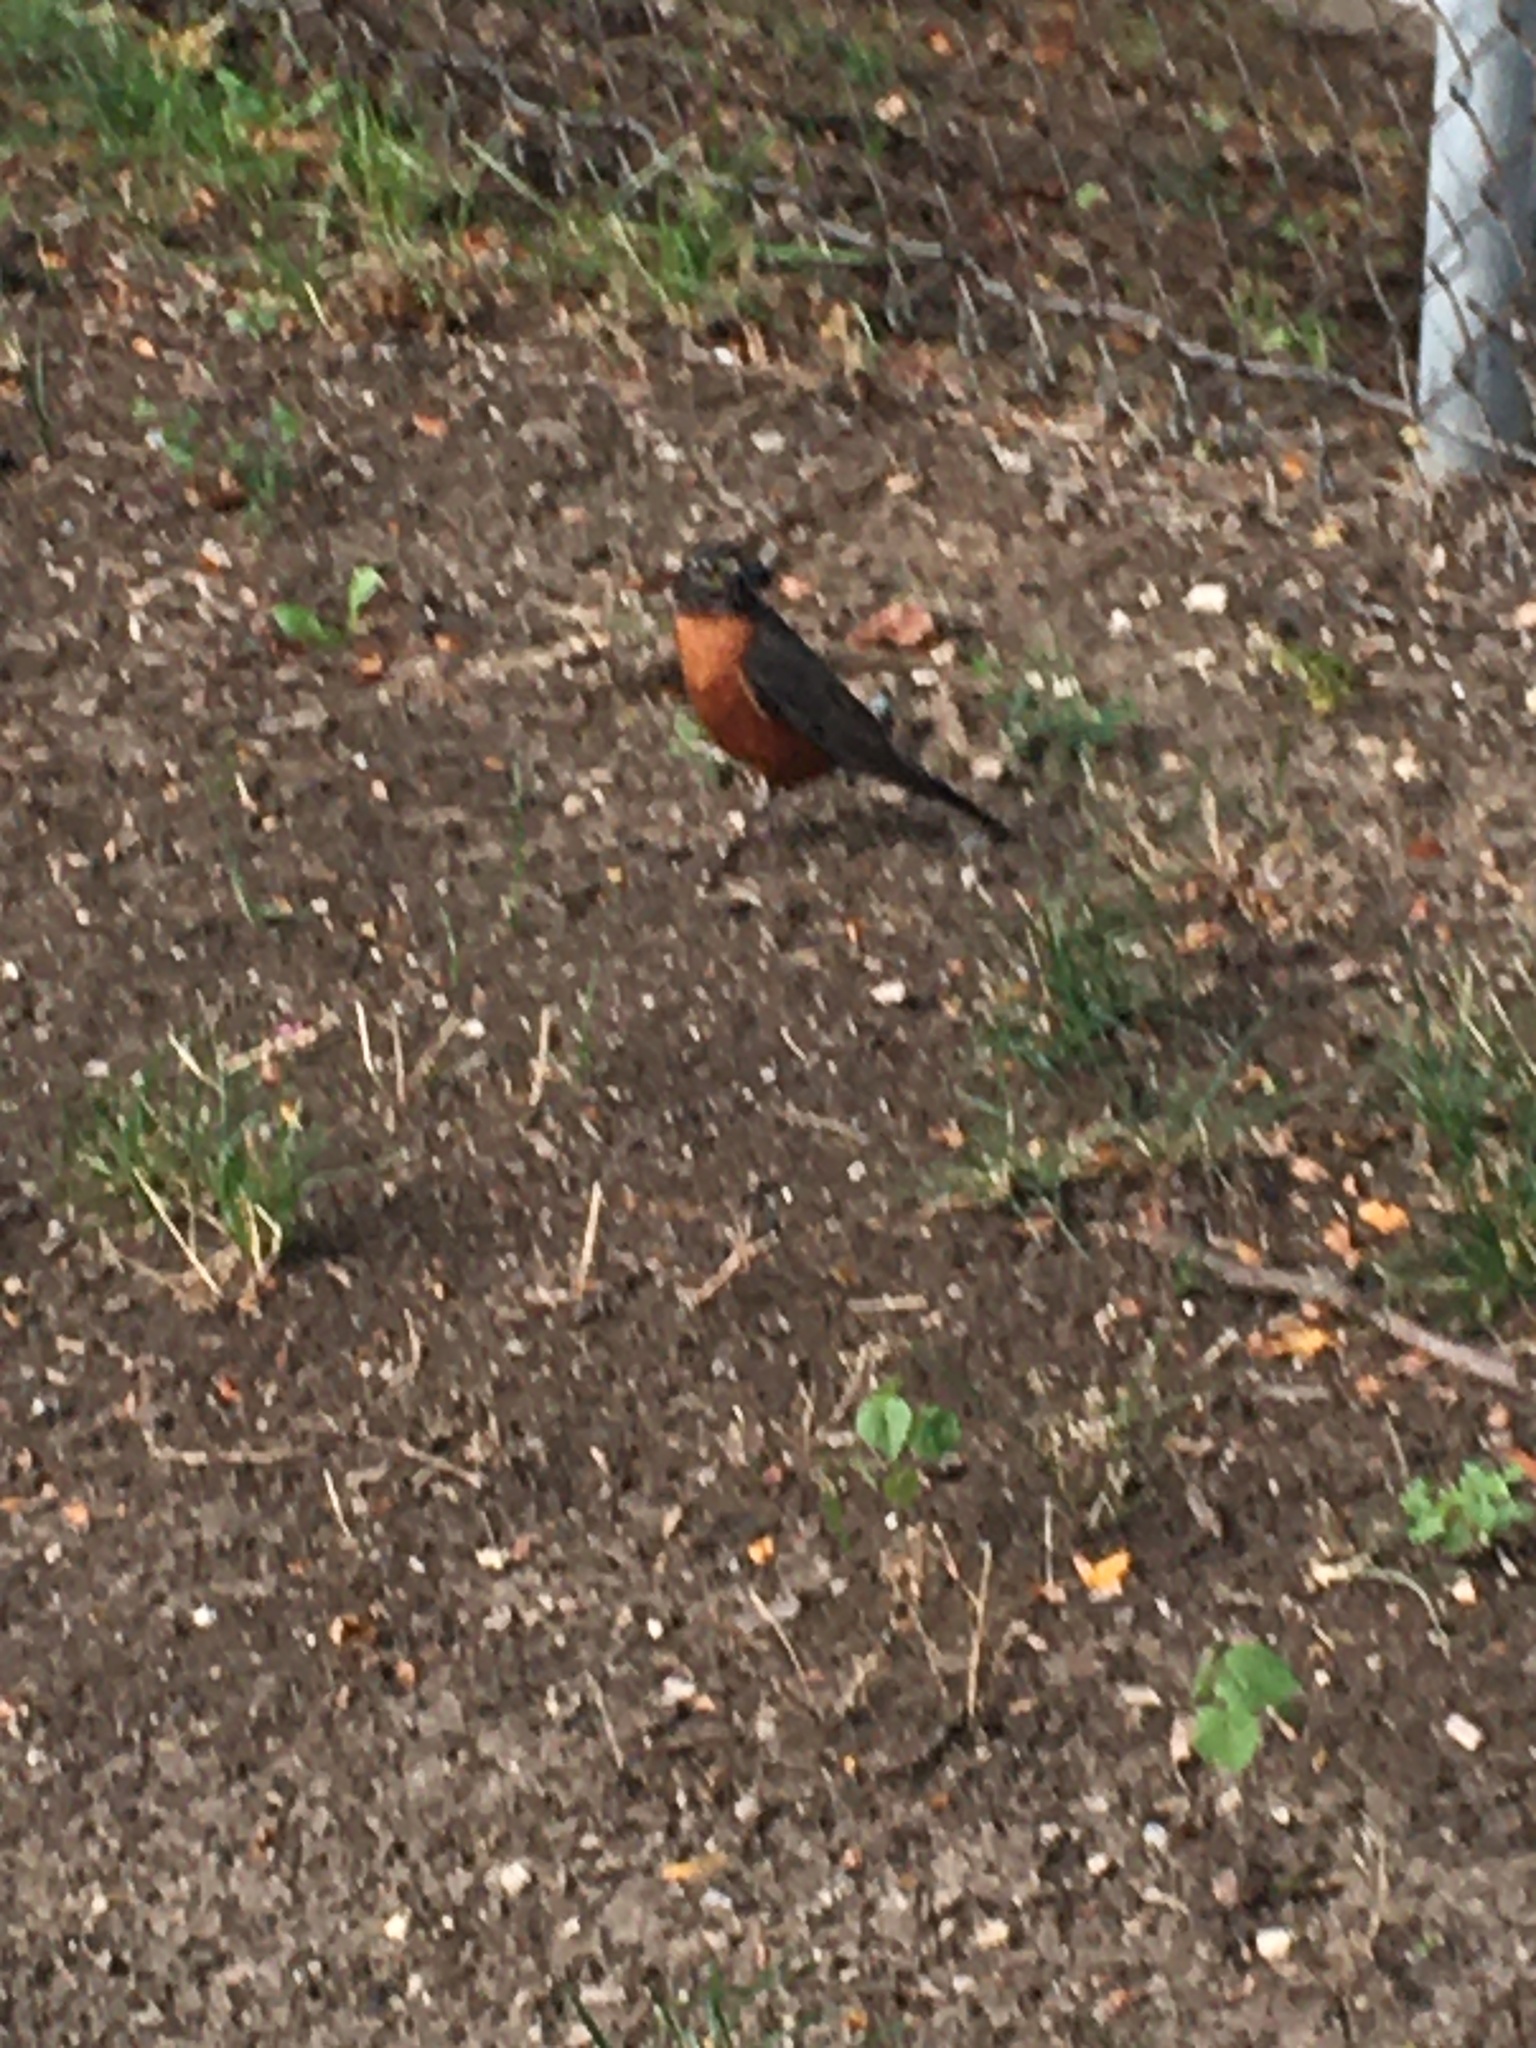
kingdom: Animalia
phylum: Chordata
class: Aves
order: Passeriformes
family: Turdidae
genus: Turdus
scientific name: Turdus migratorius
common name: American robin
